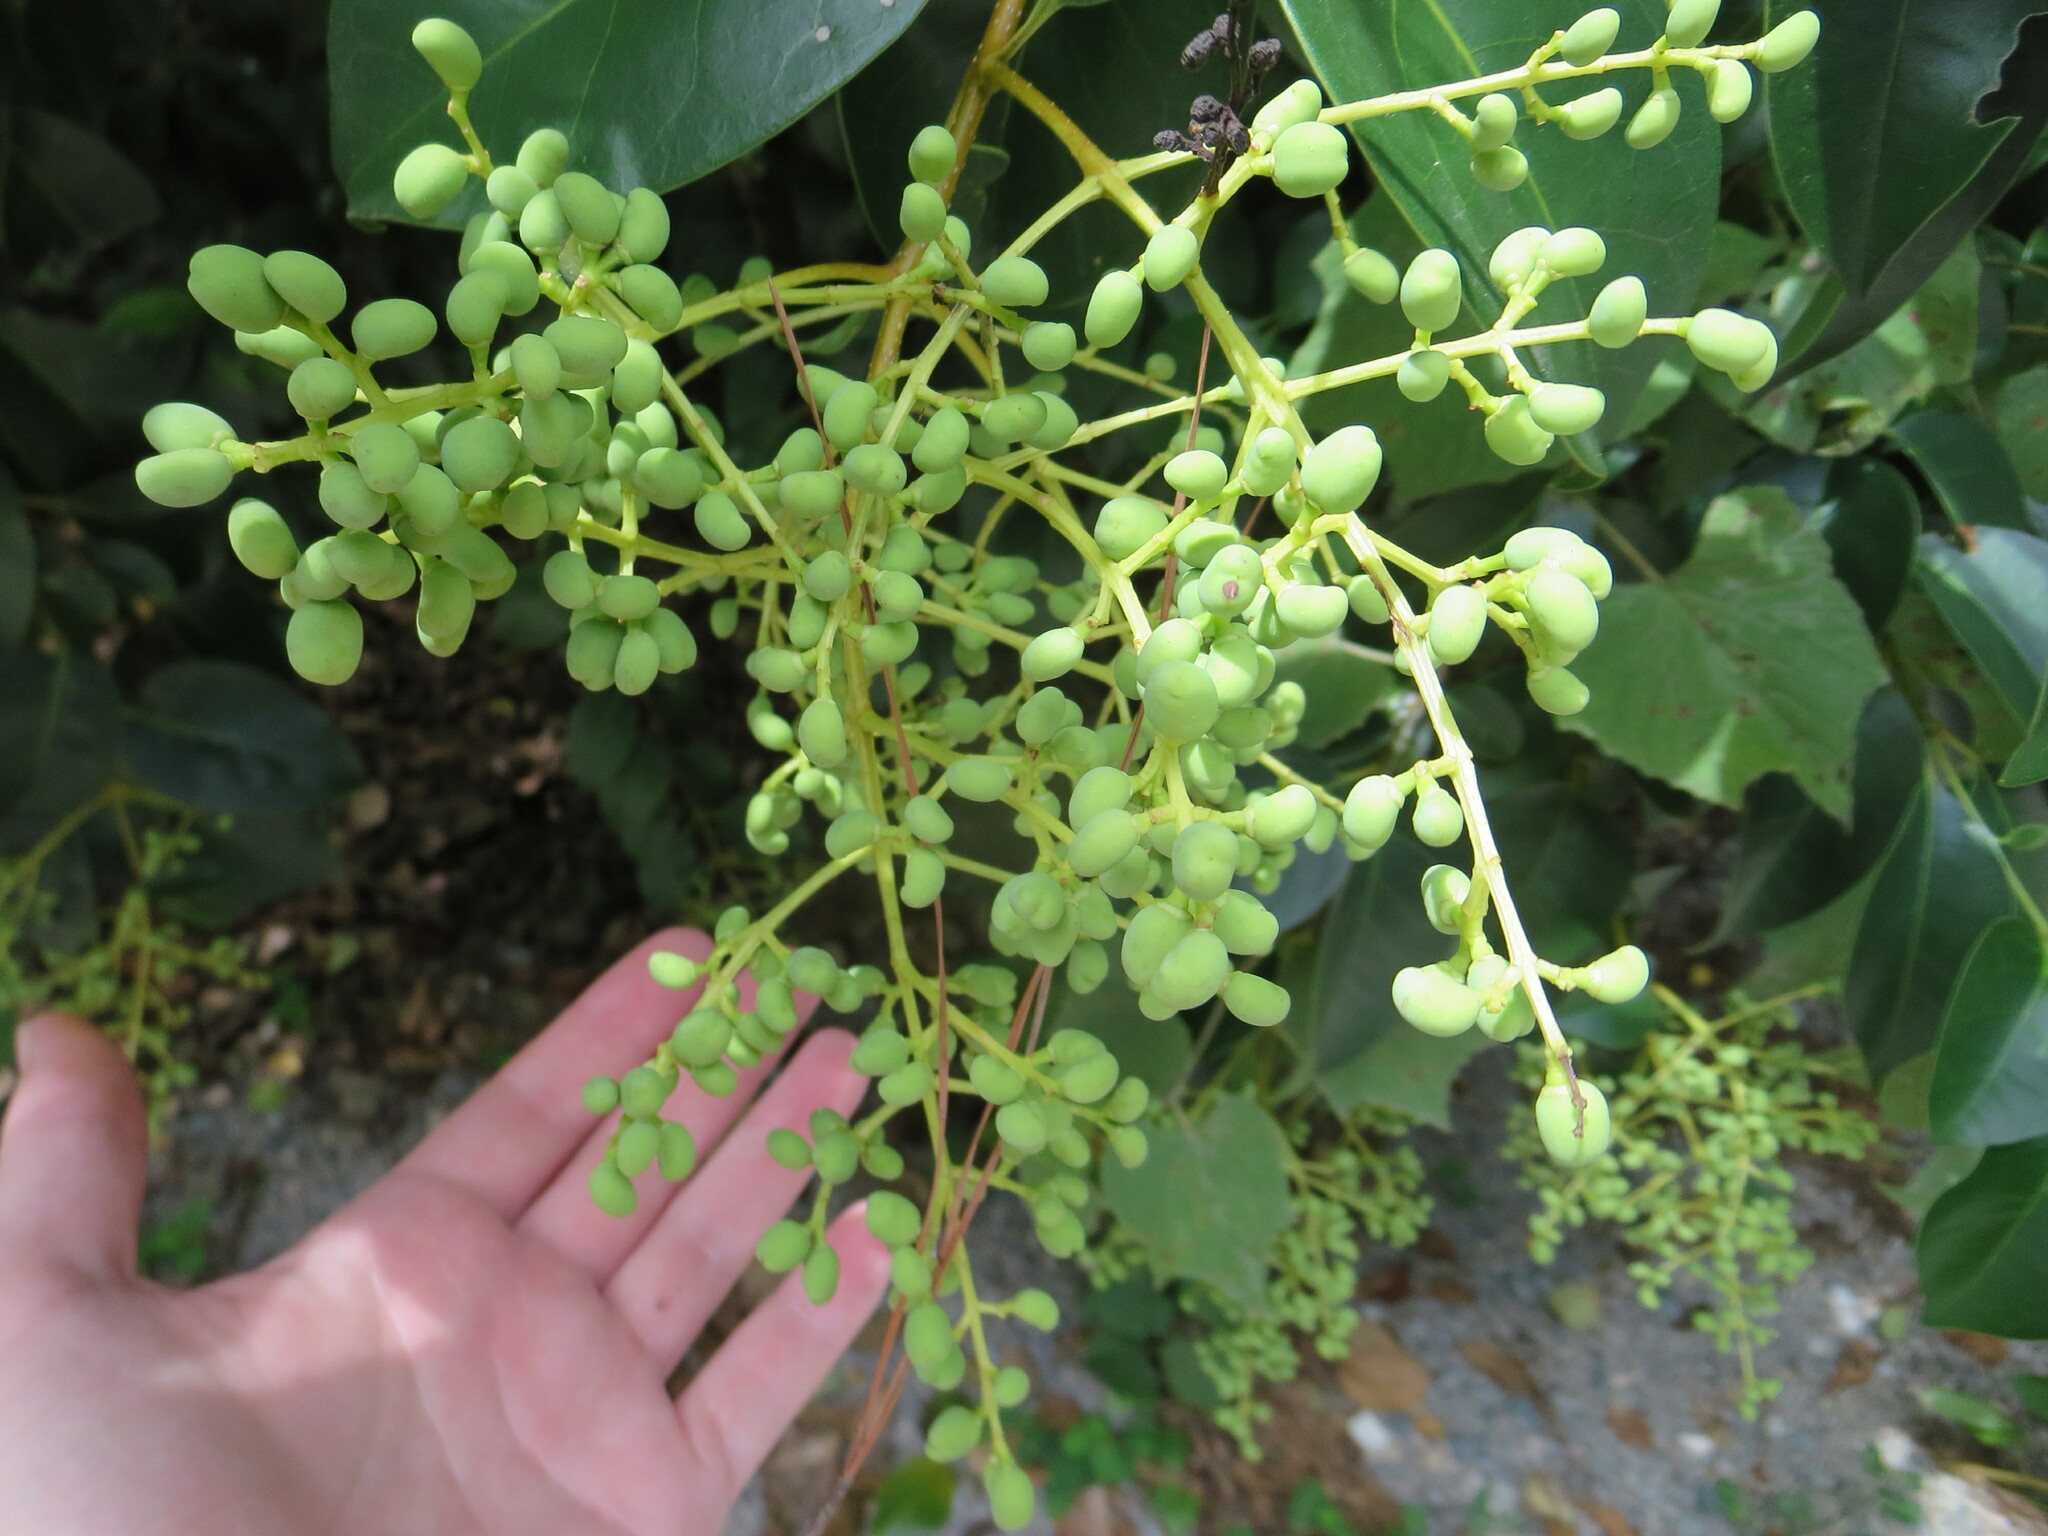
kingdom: Plantae
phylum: Tracheophyta
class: Magnoliopsida
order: Lamiales
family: Oleaceae
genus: Ligustrum
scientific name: Ligustrum lucidum
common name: Glossy privet
